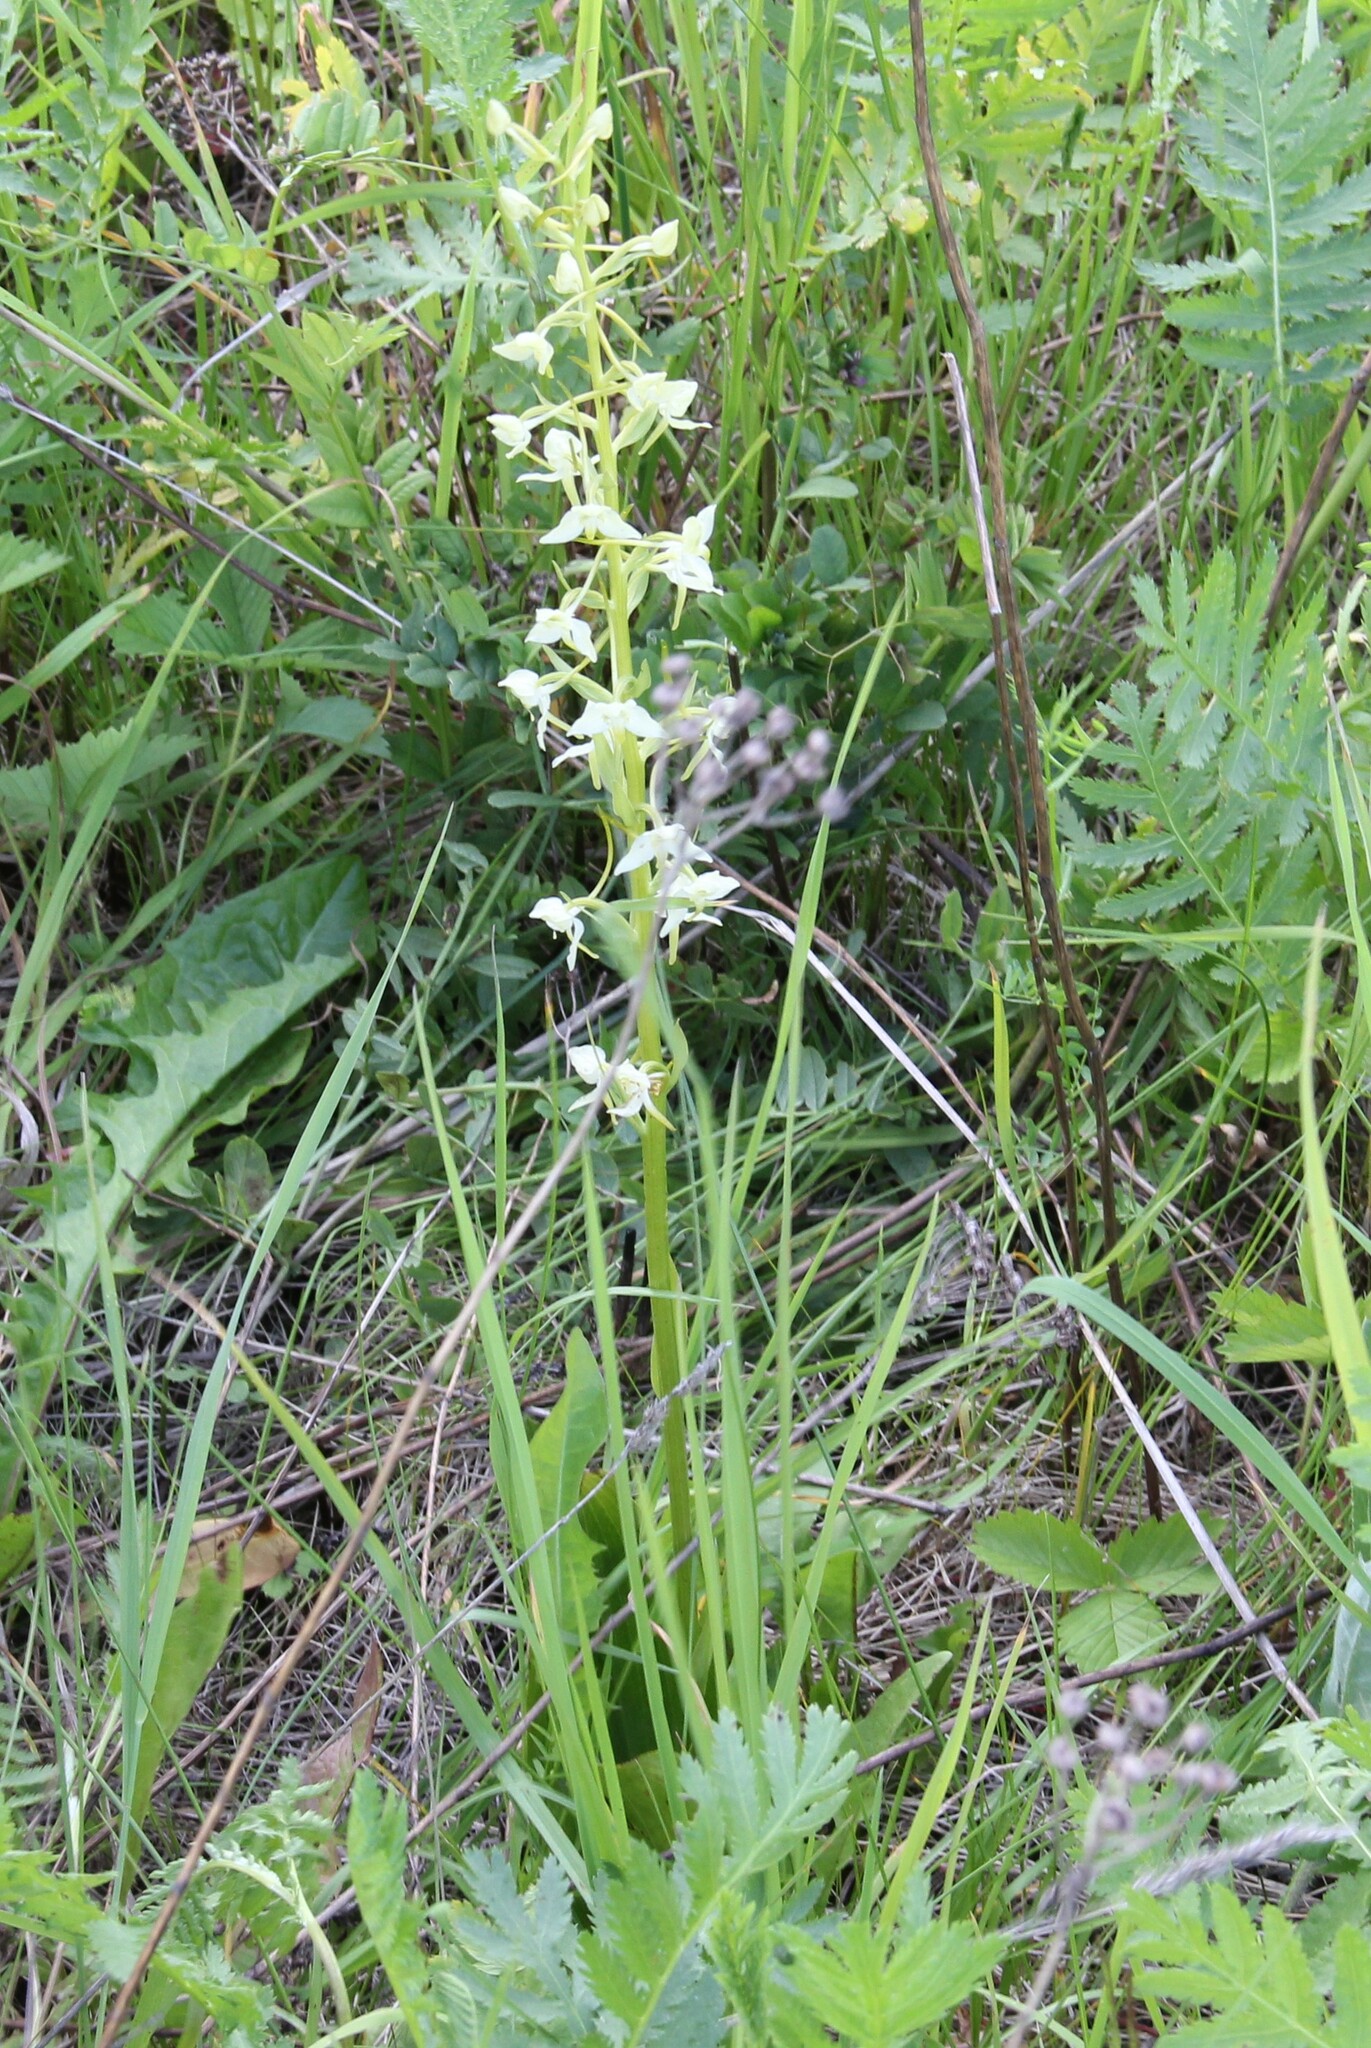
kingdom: Plantae
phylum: Tracheophyta
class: Liliopsida
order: Asparagales
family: Orchidaceae
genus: Platanthera
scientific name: Platanthera chlorantha
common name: Greater butterfly-orchid
